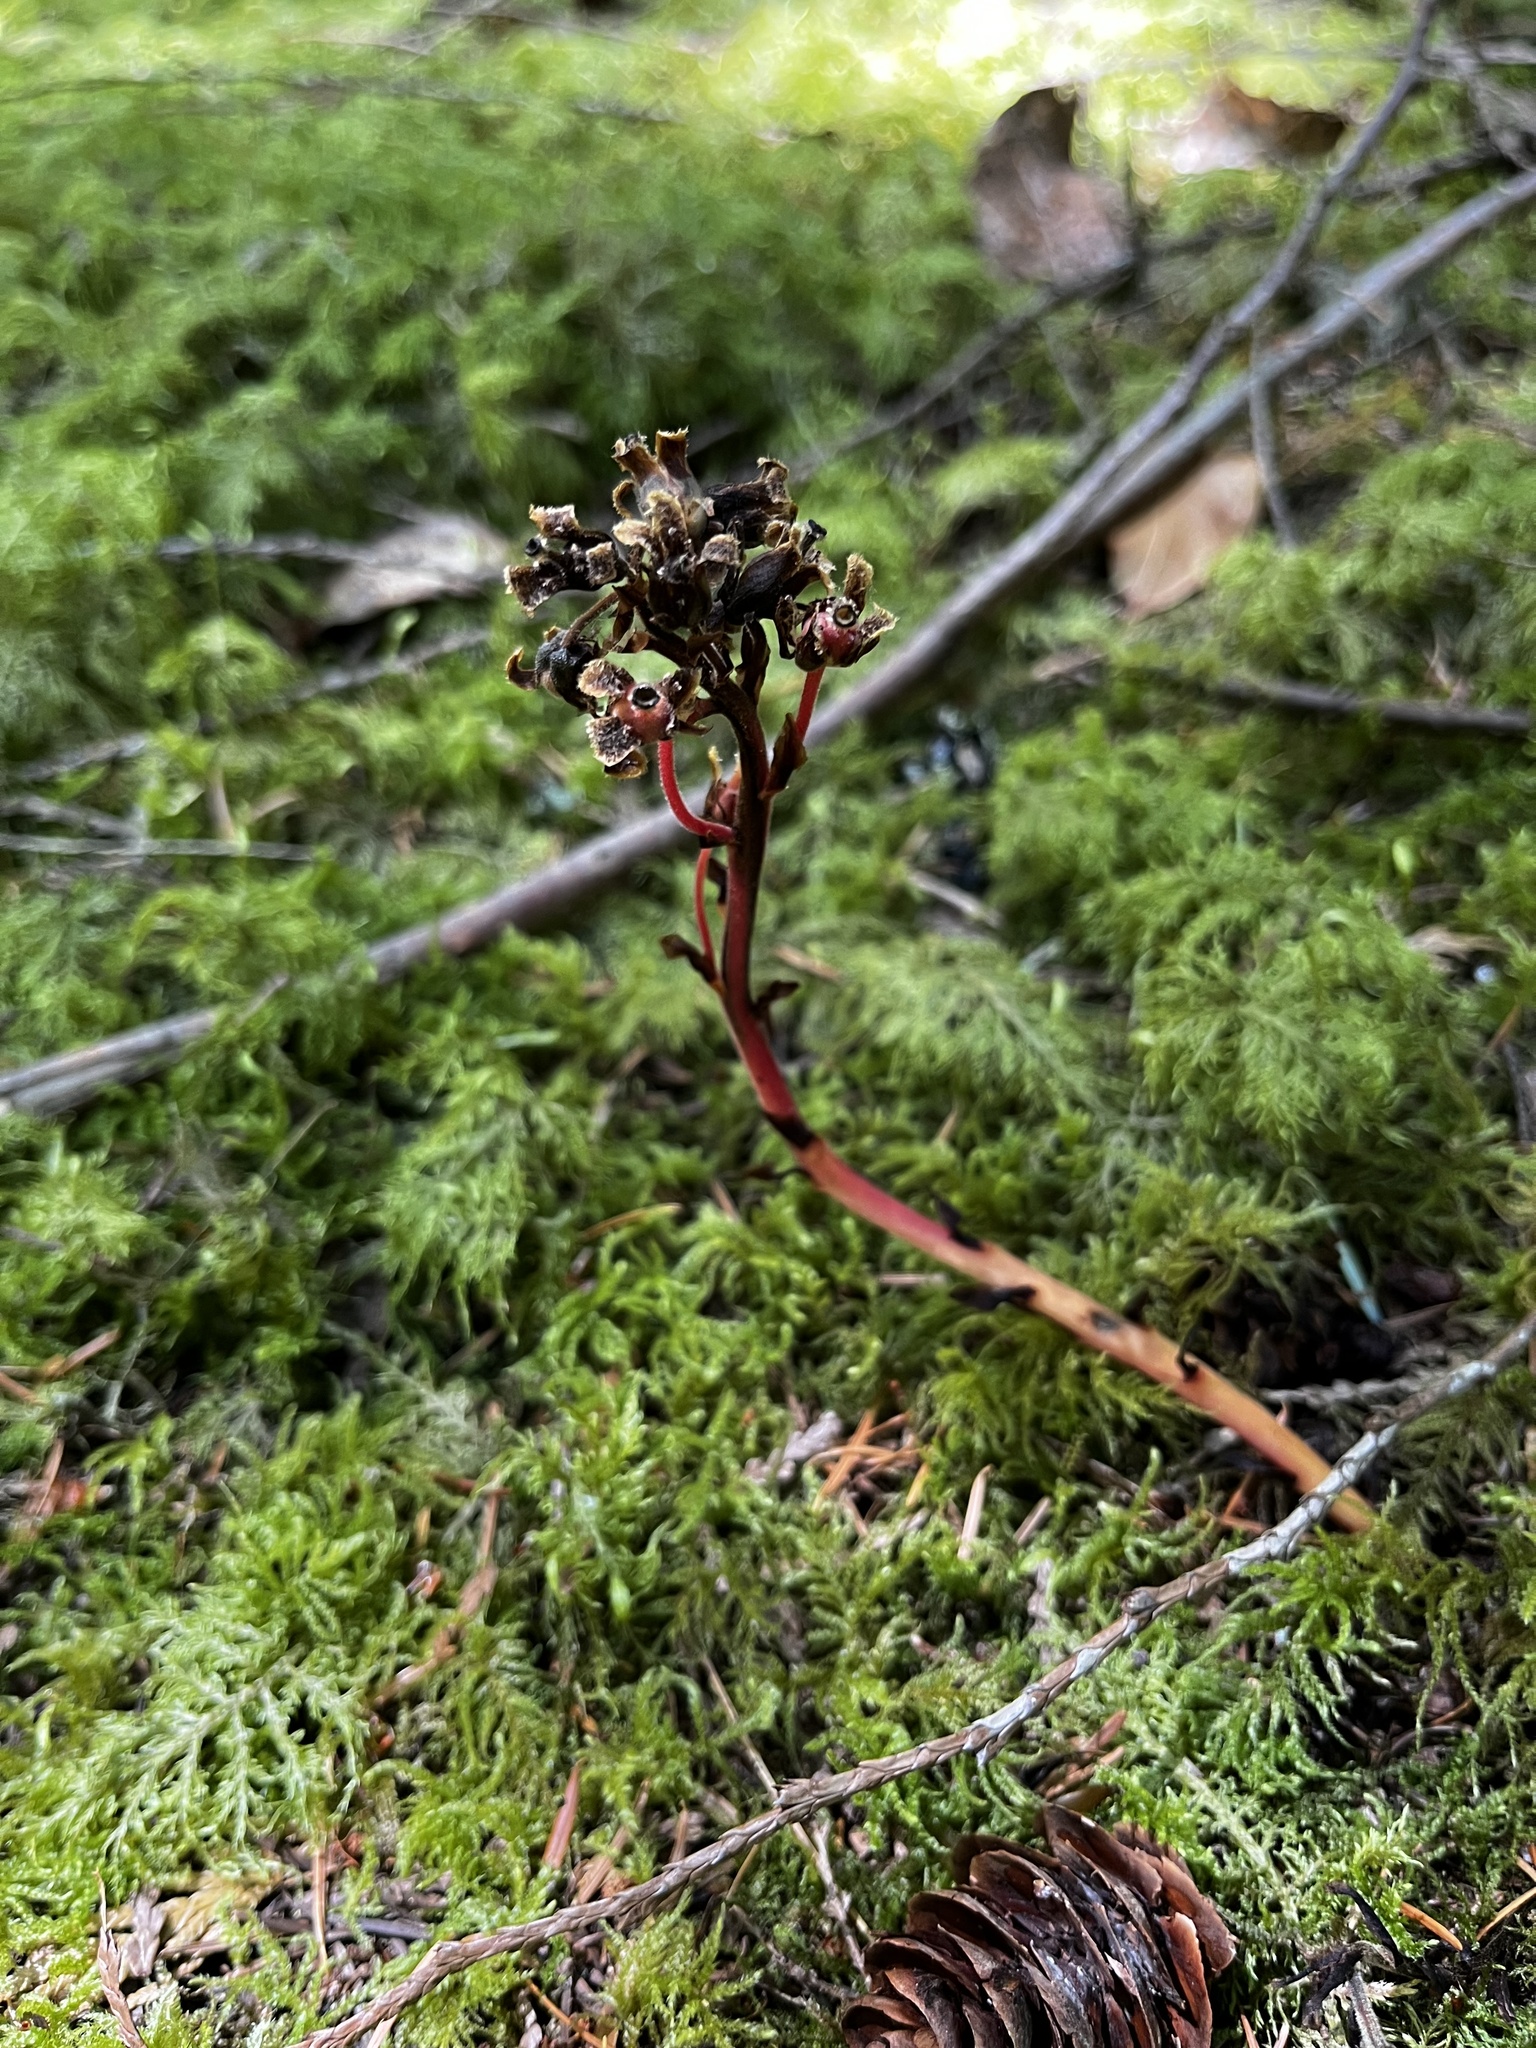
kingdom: Plantae
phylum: Tracheophyta
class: Magnoliopsida
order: Ericales
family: Ericaceae
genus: Hypopitys
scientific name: Hypopitys monotropa
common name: Yellow bird's-nest
